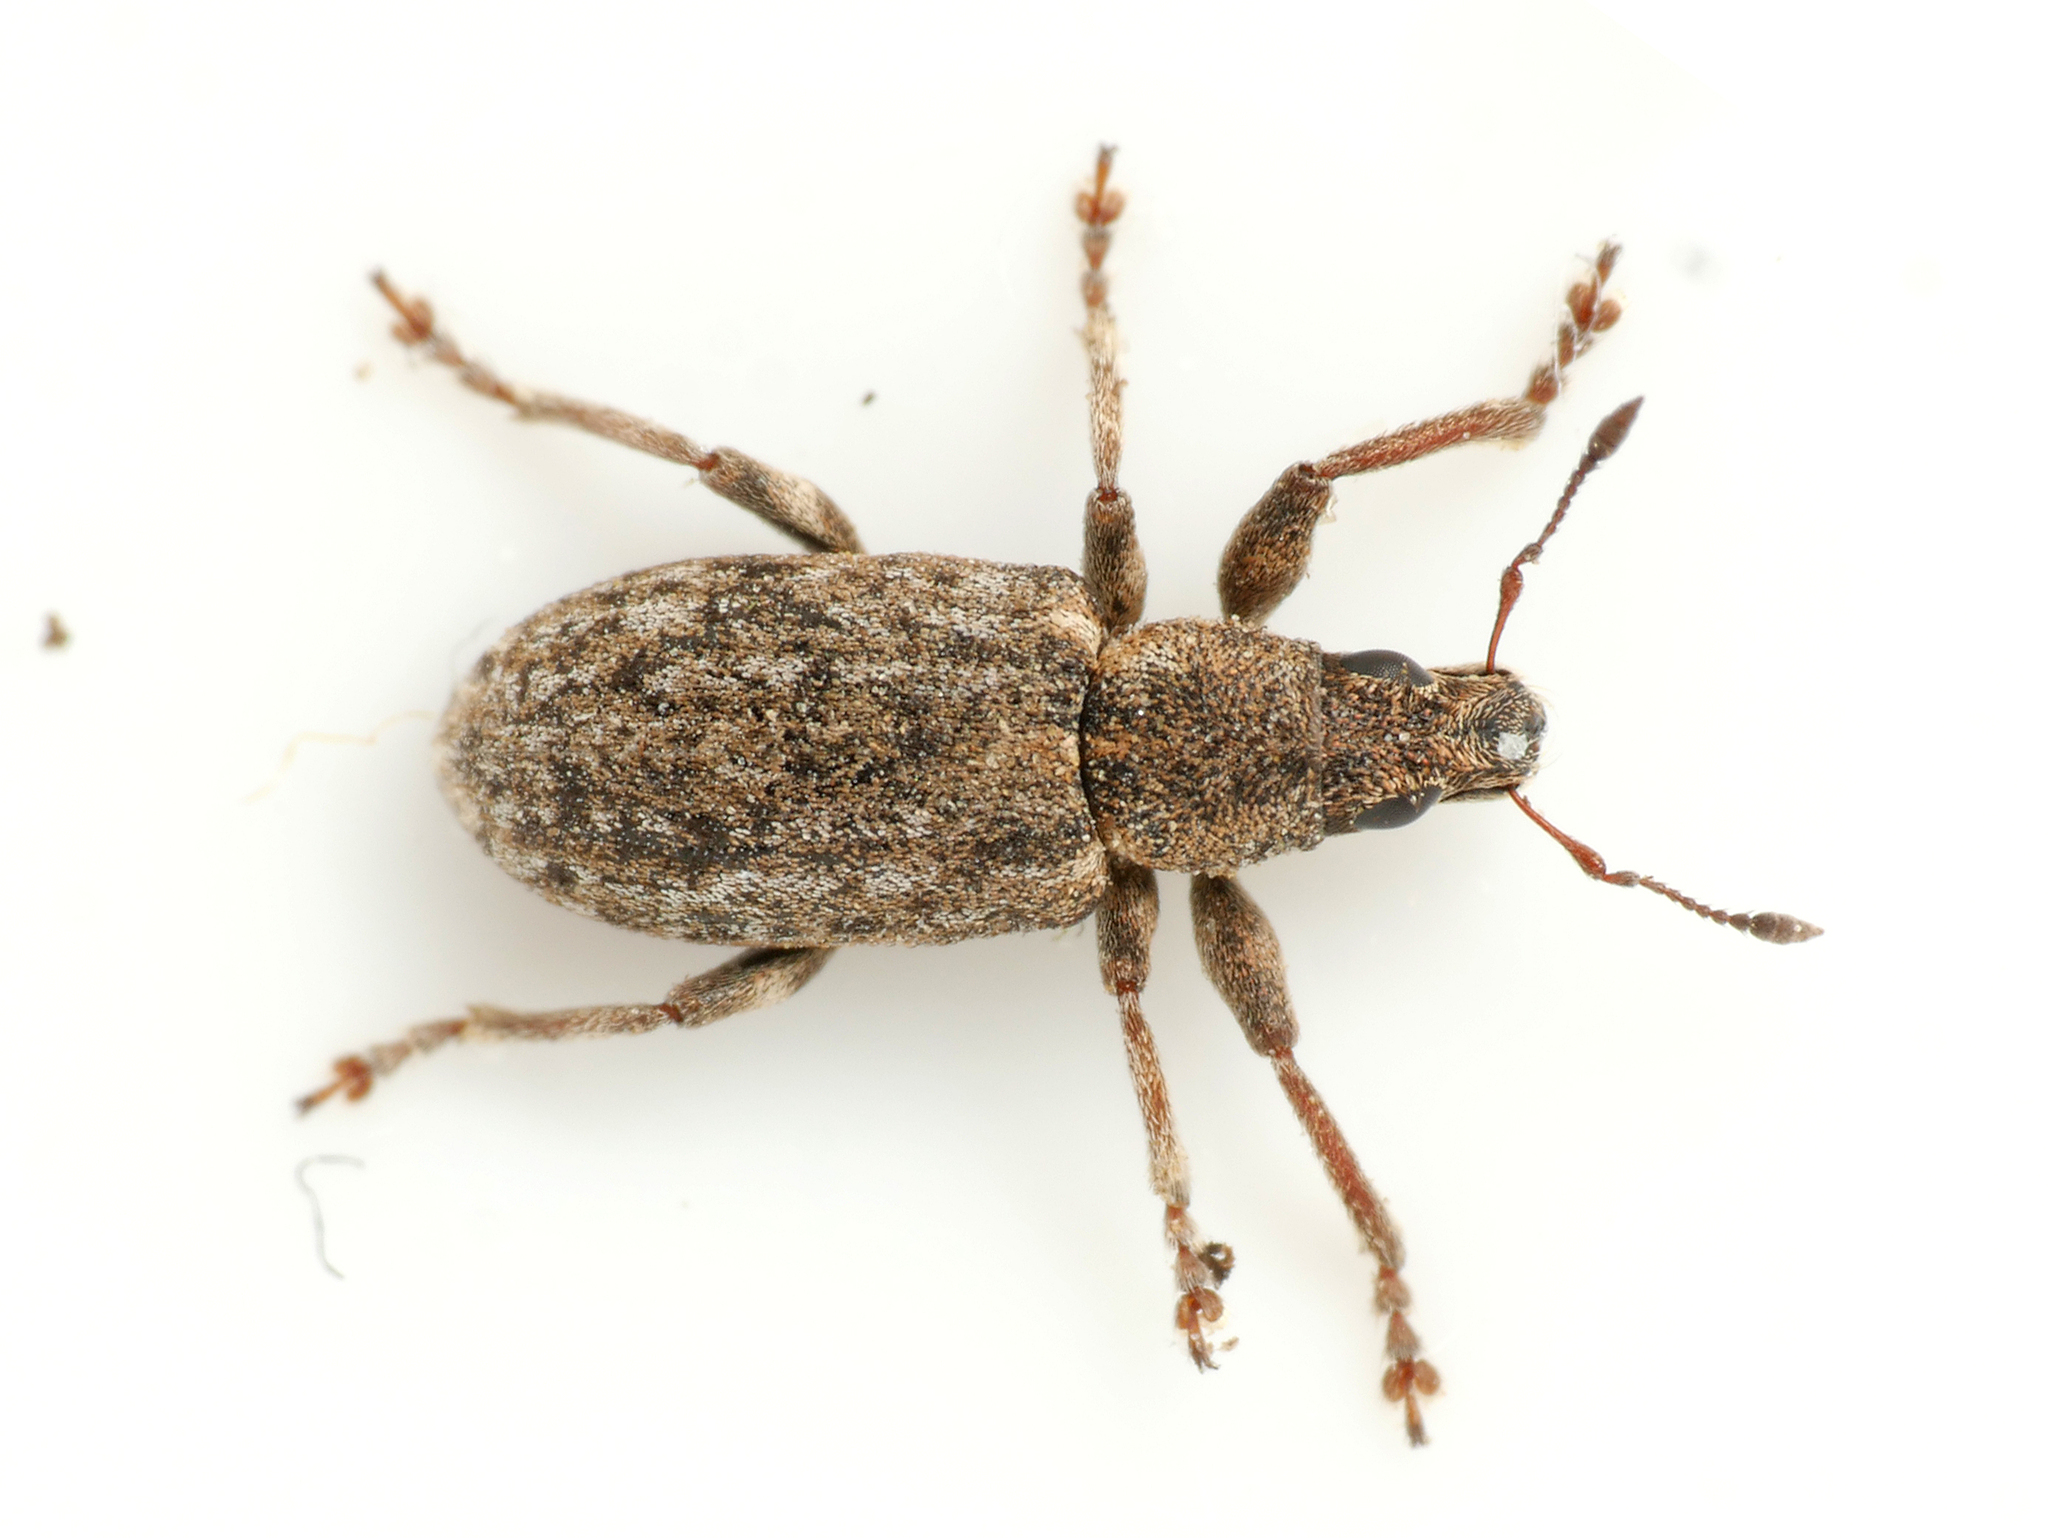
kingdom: Animalia
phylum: Arthropoda
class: Insecta
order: Coleoptera
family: Curculionidae
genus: Sitona
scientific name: Sitona cylindricollis
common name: Weevil
